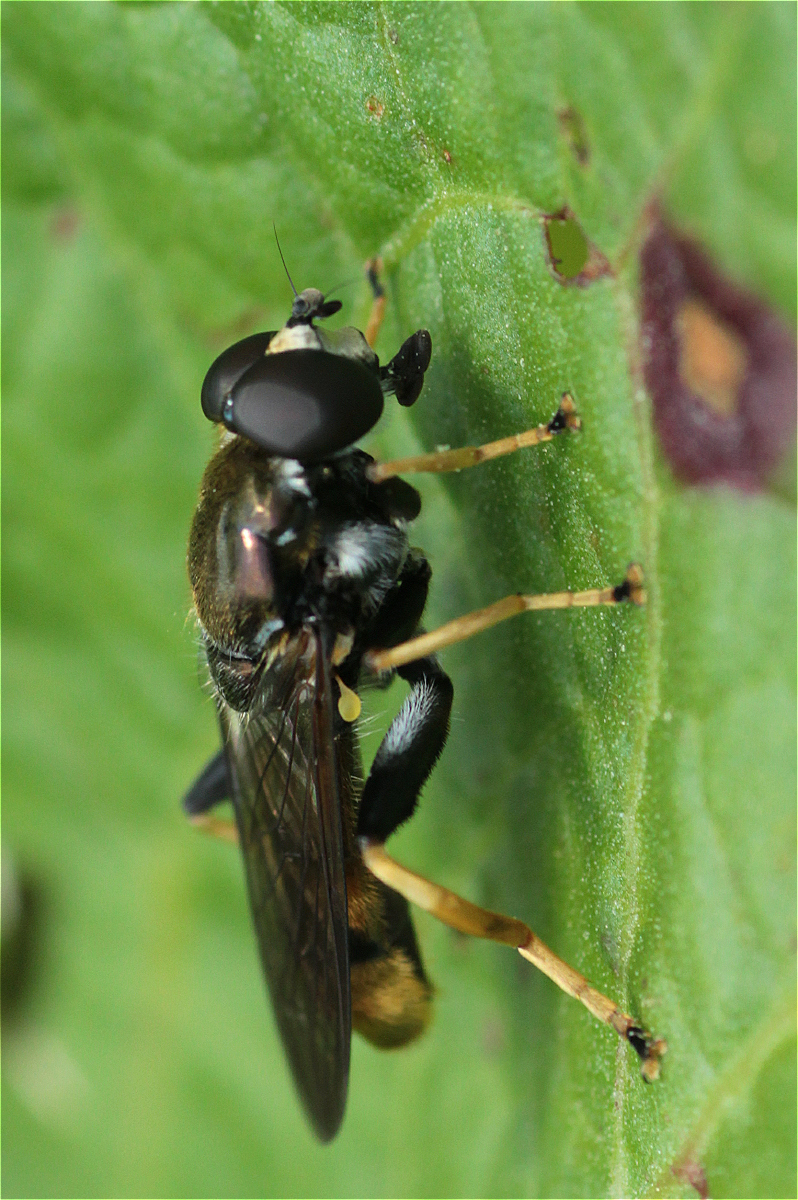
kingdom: Animalia
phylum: Arthropoda
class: Insecta
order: Diptera
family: Syrphidae
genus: Xylota
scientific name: Xylota xanthocnema
